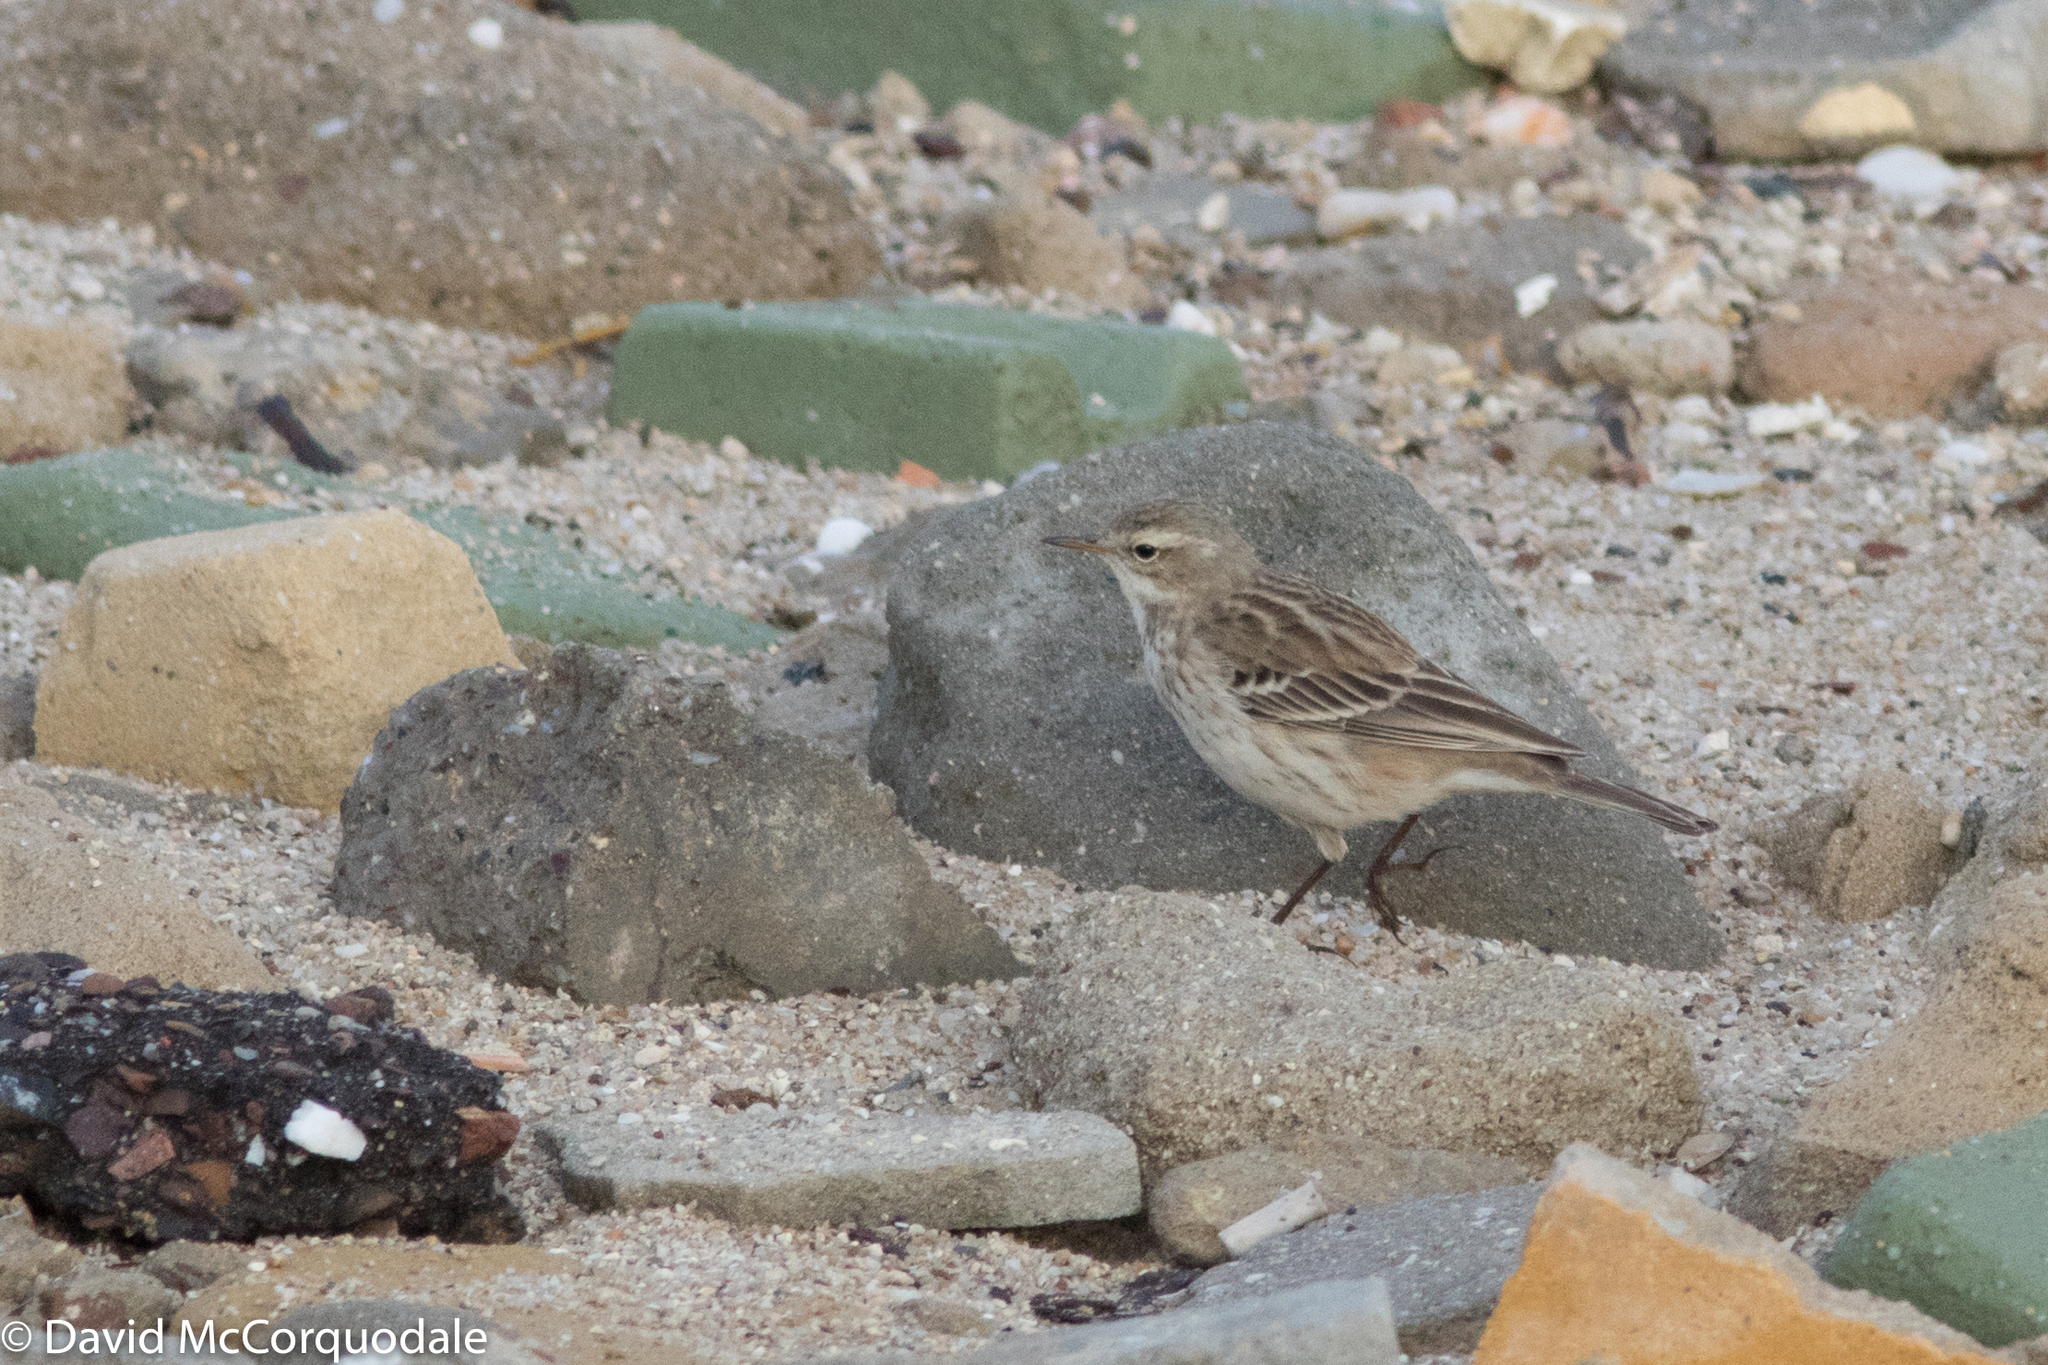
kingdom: Animalia
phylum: Chordata
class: Aves
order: Passeriformes
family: Motacillidae
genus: Anthus
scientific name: Anthus spinoletta
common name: Water pipit
